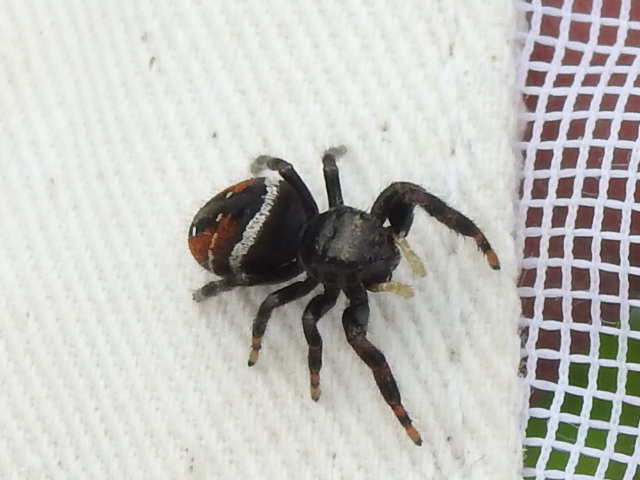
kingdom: Animalia
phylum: Arthropoda
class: Arachnida
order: Araneae
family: Salticidae
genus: Phidippus
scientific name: Phidippus clarus
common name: Brilliant jumping spider
